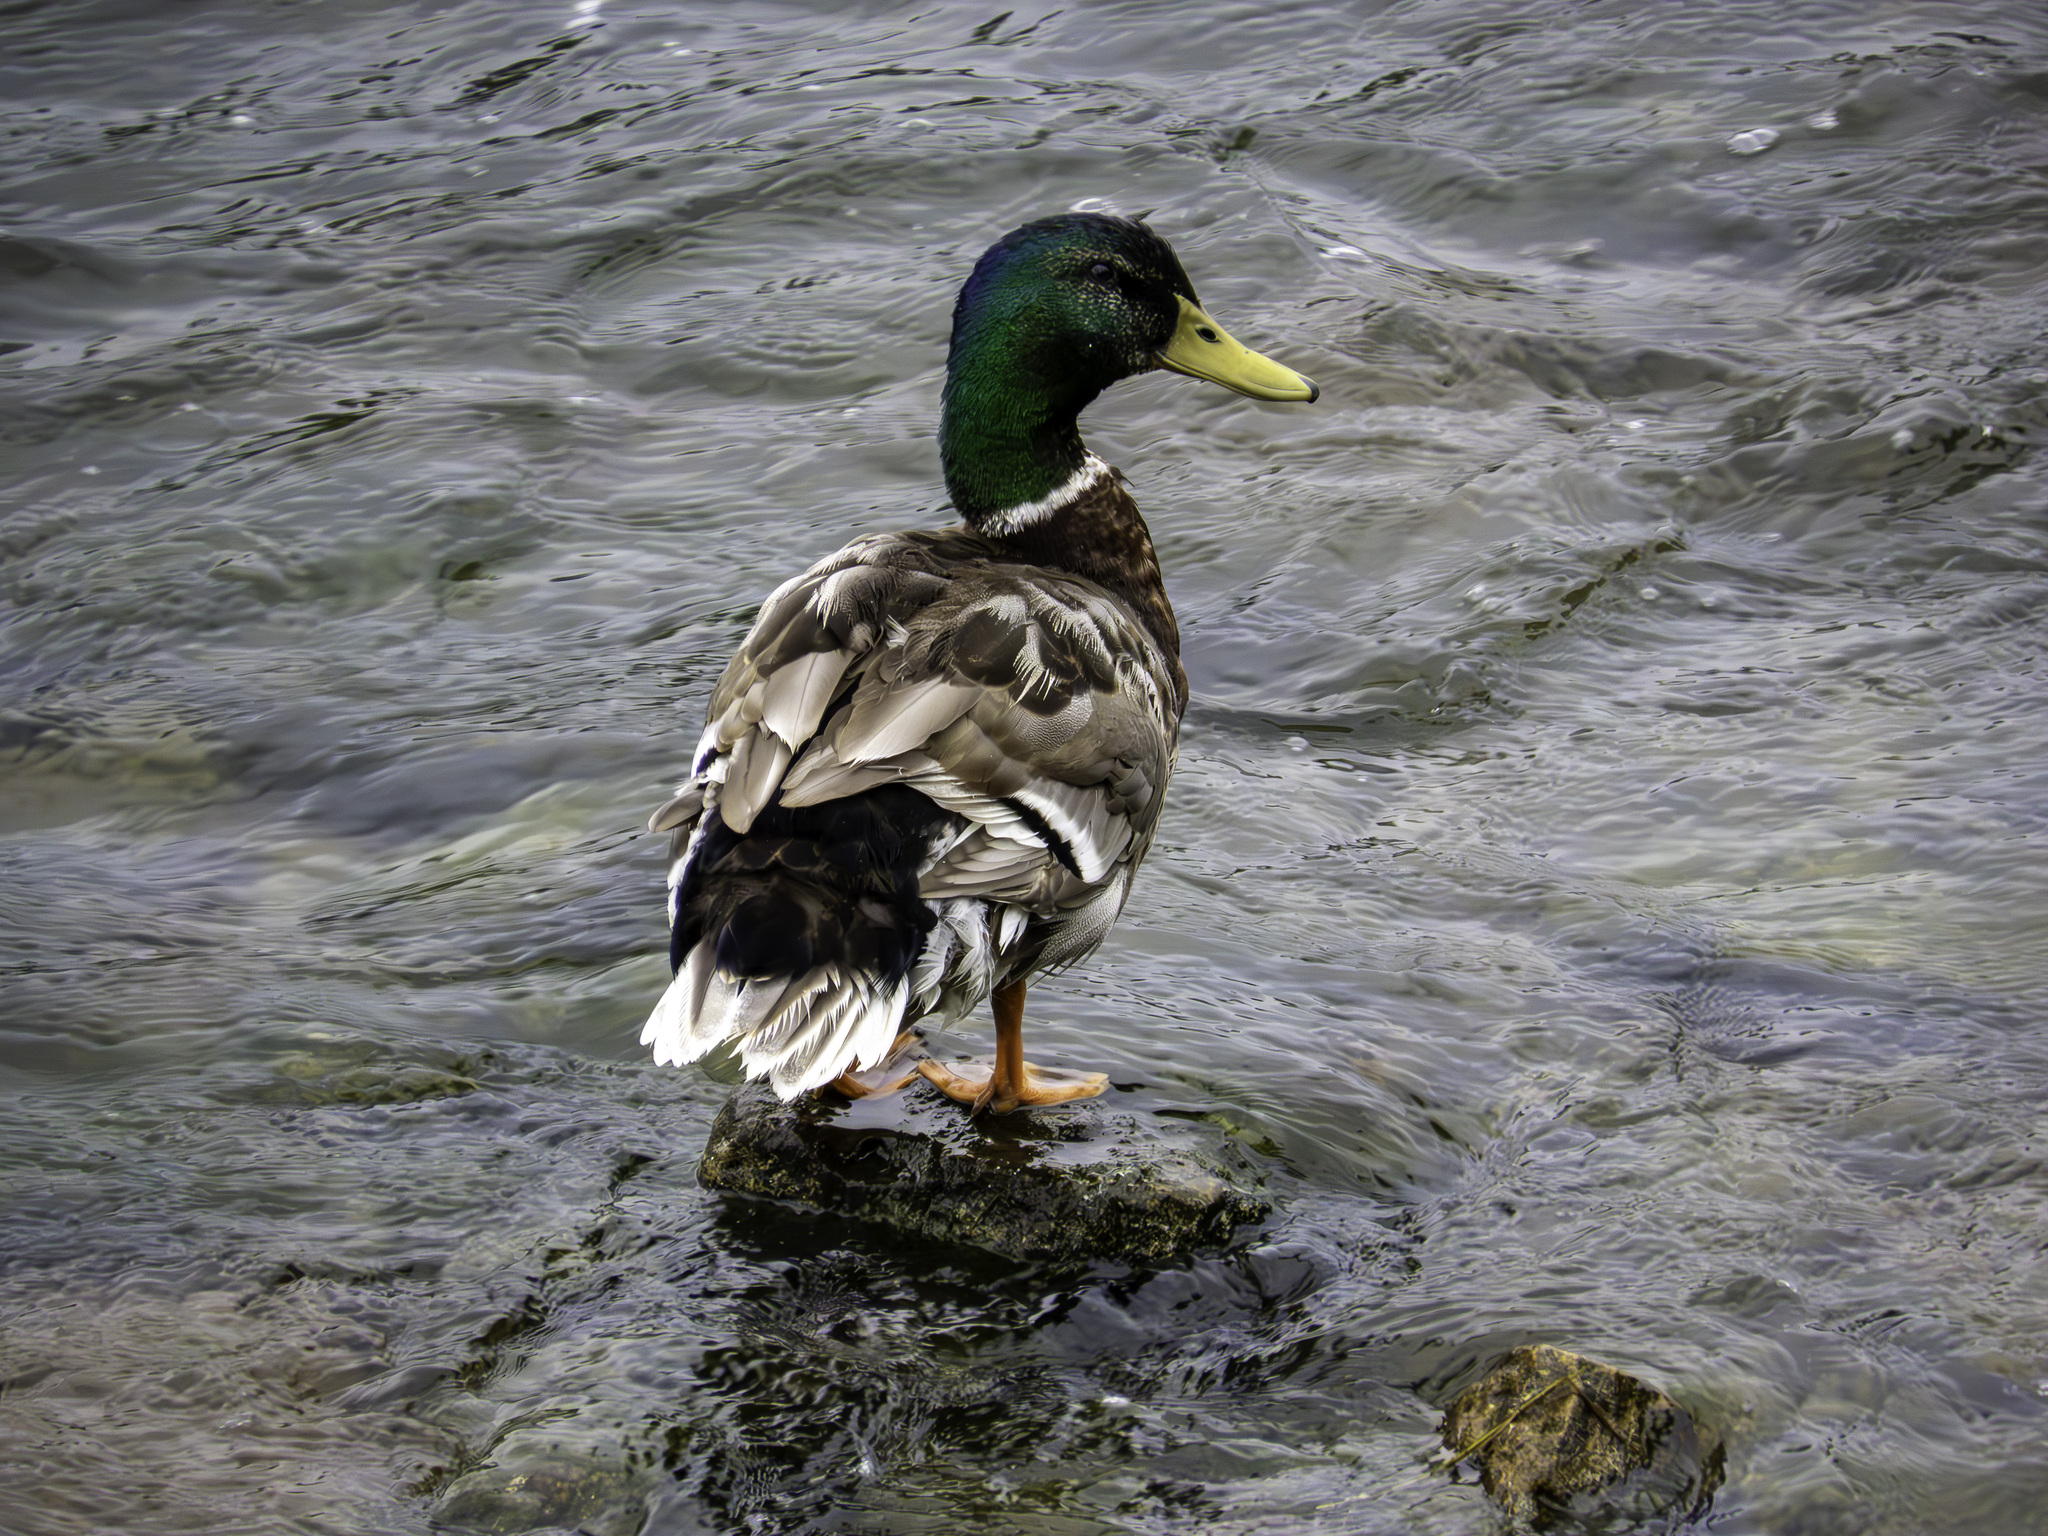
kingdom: Animalia
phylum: Chordata
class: Aves
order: Anseriformes
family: Anatidae
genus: Anas
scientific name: Anas platyrhynchos
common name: Mallard
